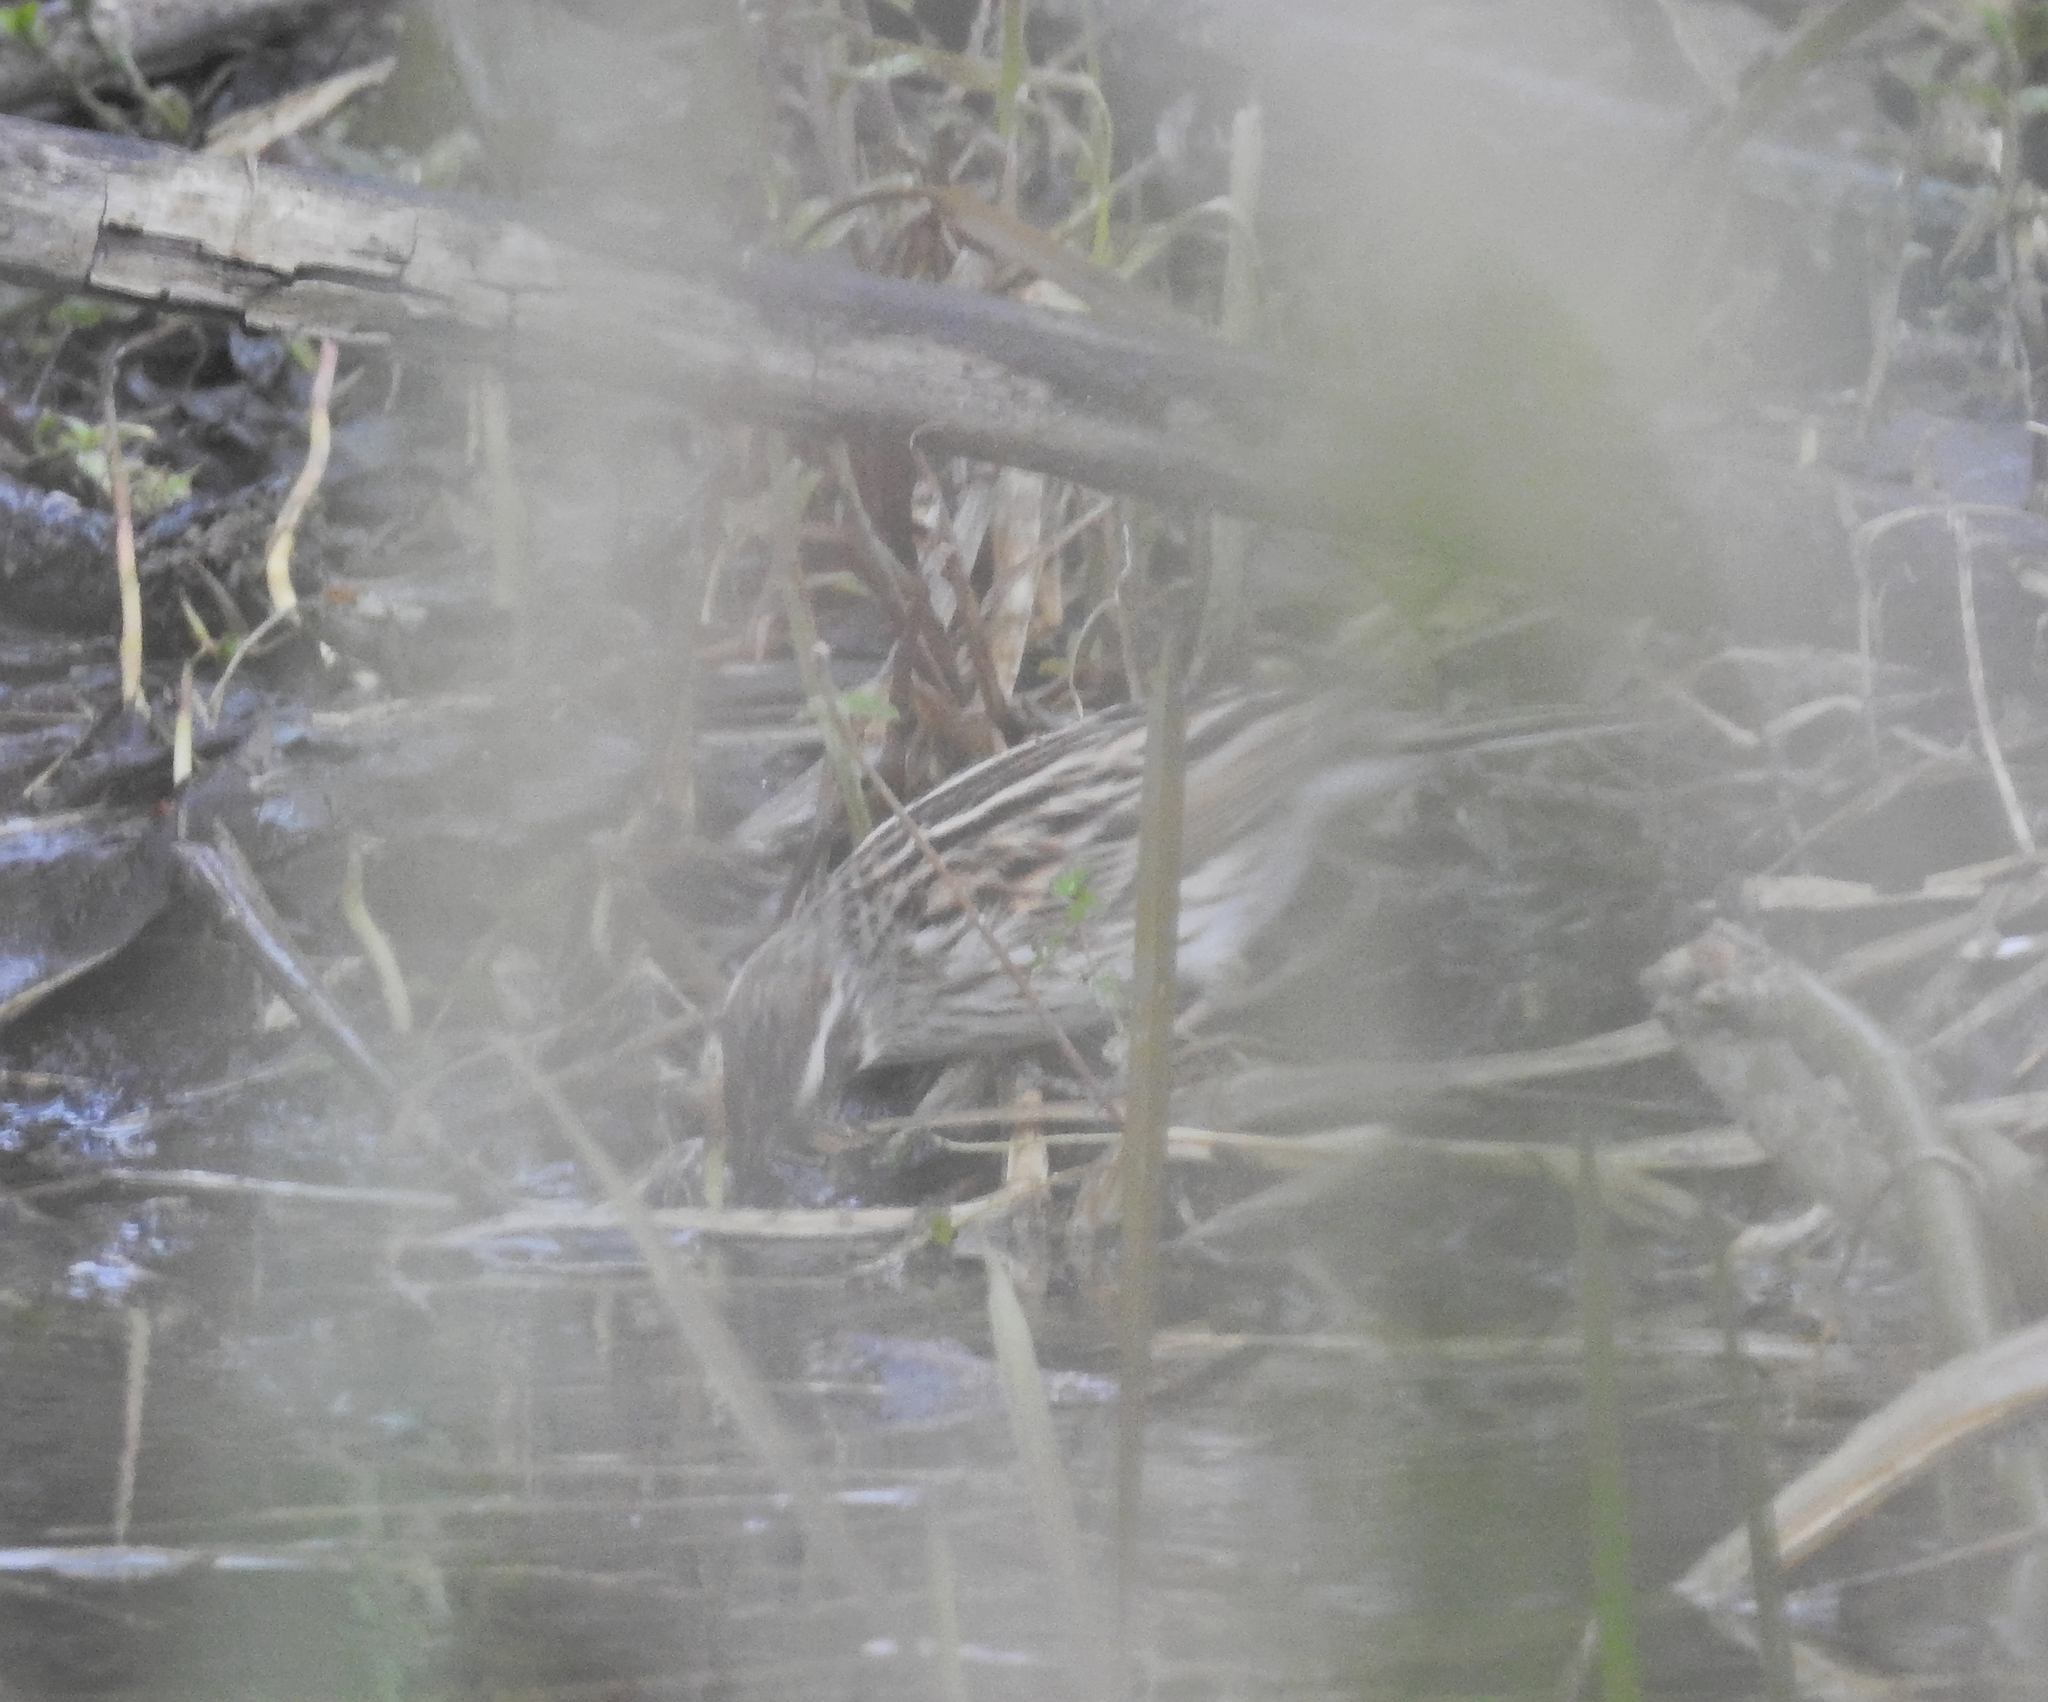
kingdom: Animalia
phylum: Chordata
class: Aves
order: Passeriformes
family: Emberizidae
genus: Emberiza
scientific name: Emberiza schoeniclus
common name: Reed bunting
